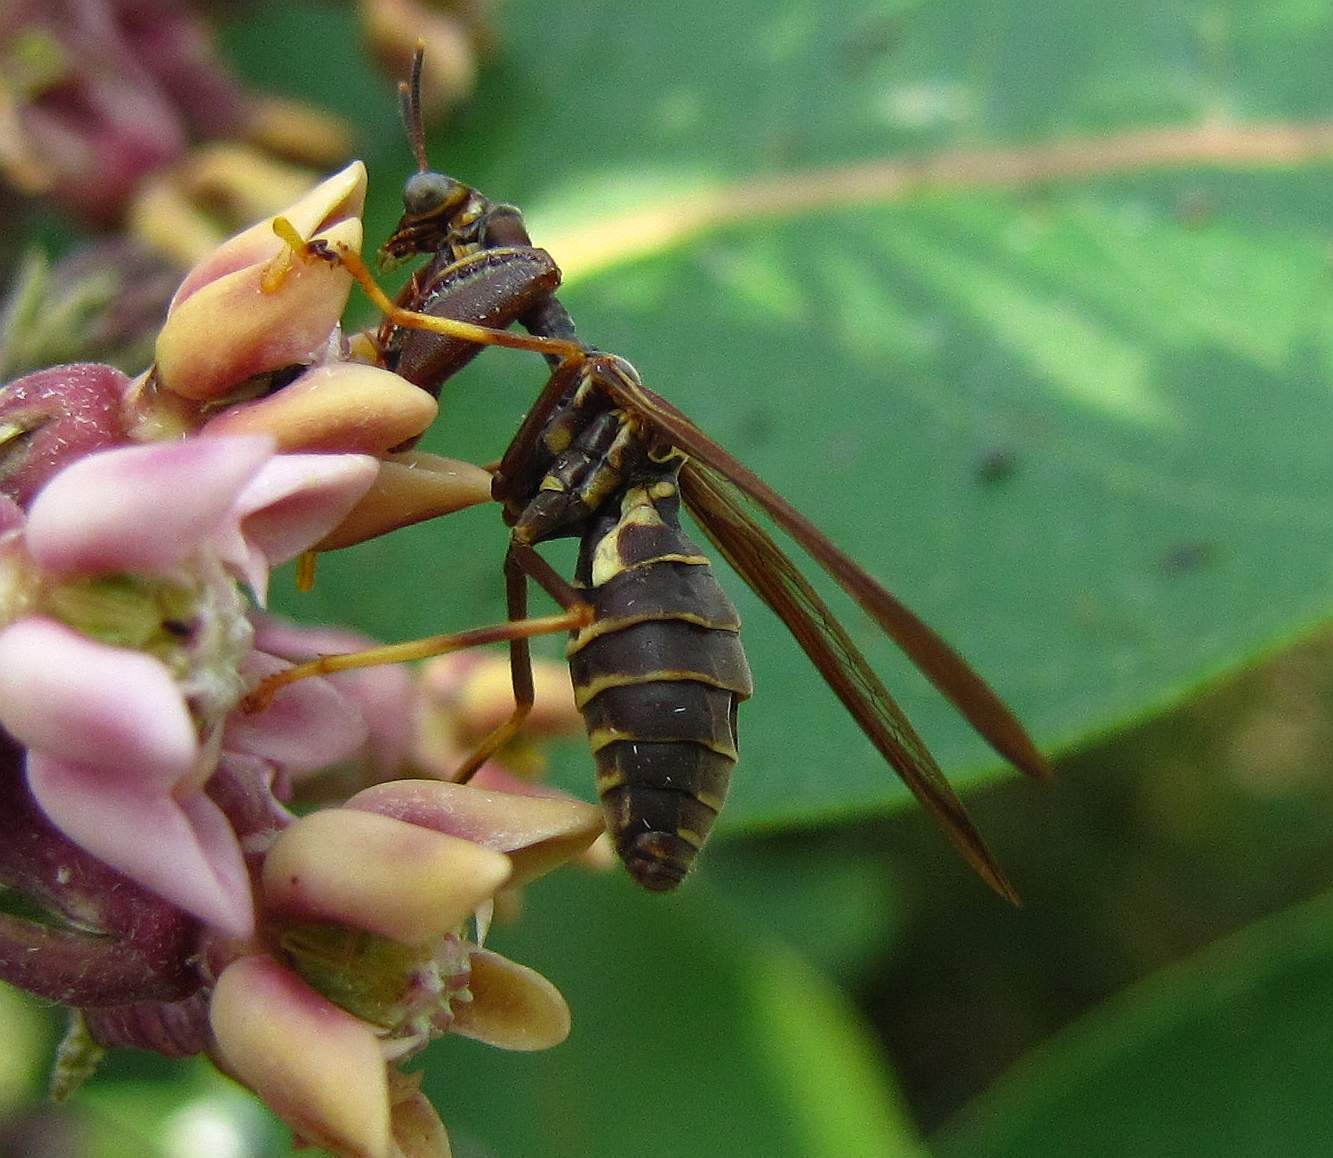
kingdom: Animalia
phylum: Arthropoda
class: Insecta
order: Neuroptera
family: Mantispidae
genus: Climaciella
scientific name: Climaciella brunnea
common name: Brown wasp mantidfly
